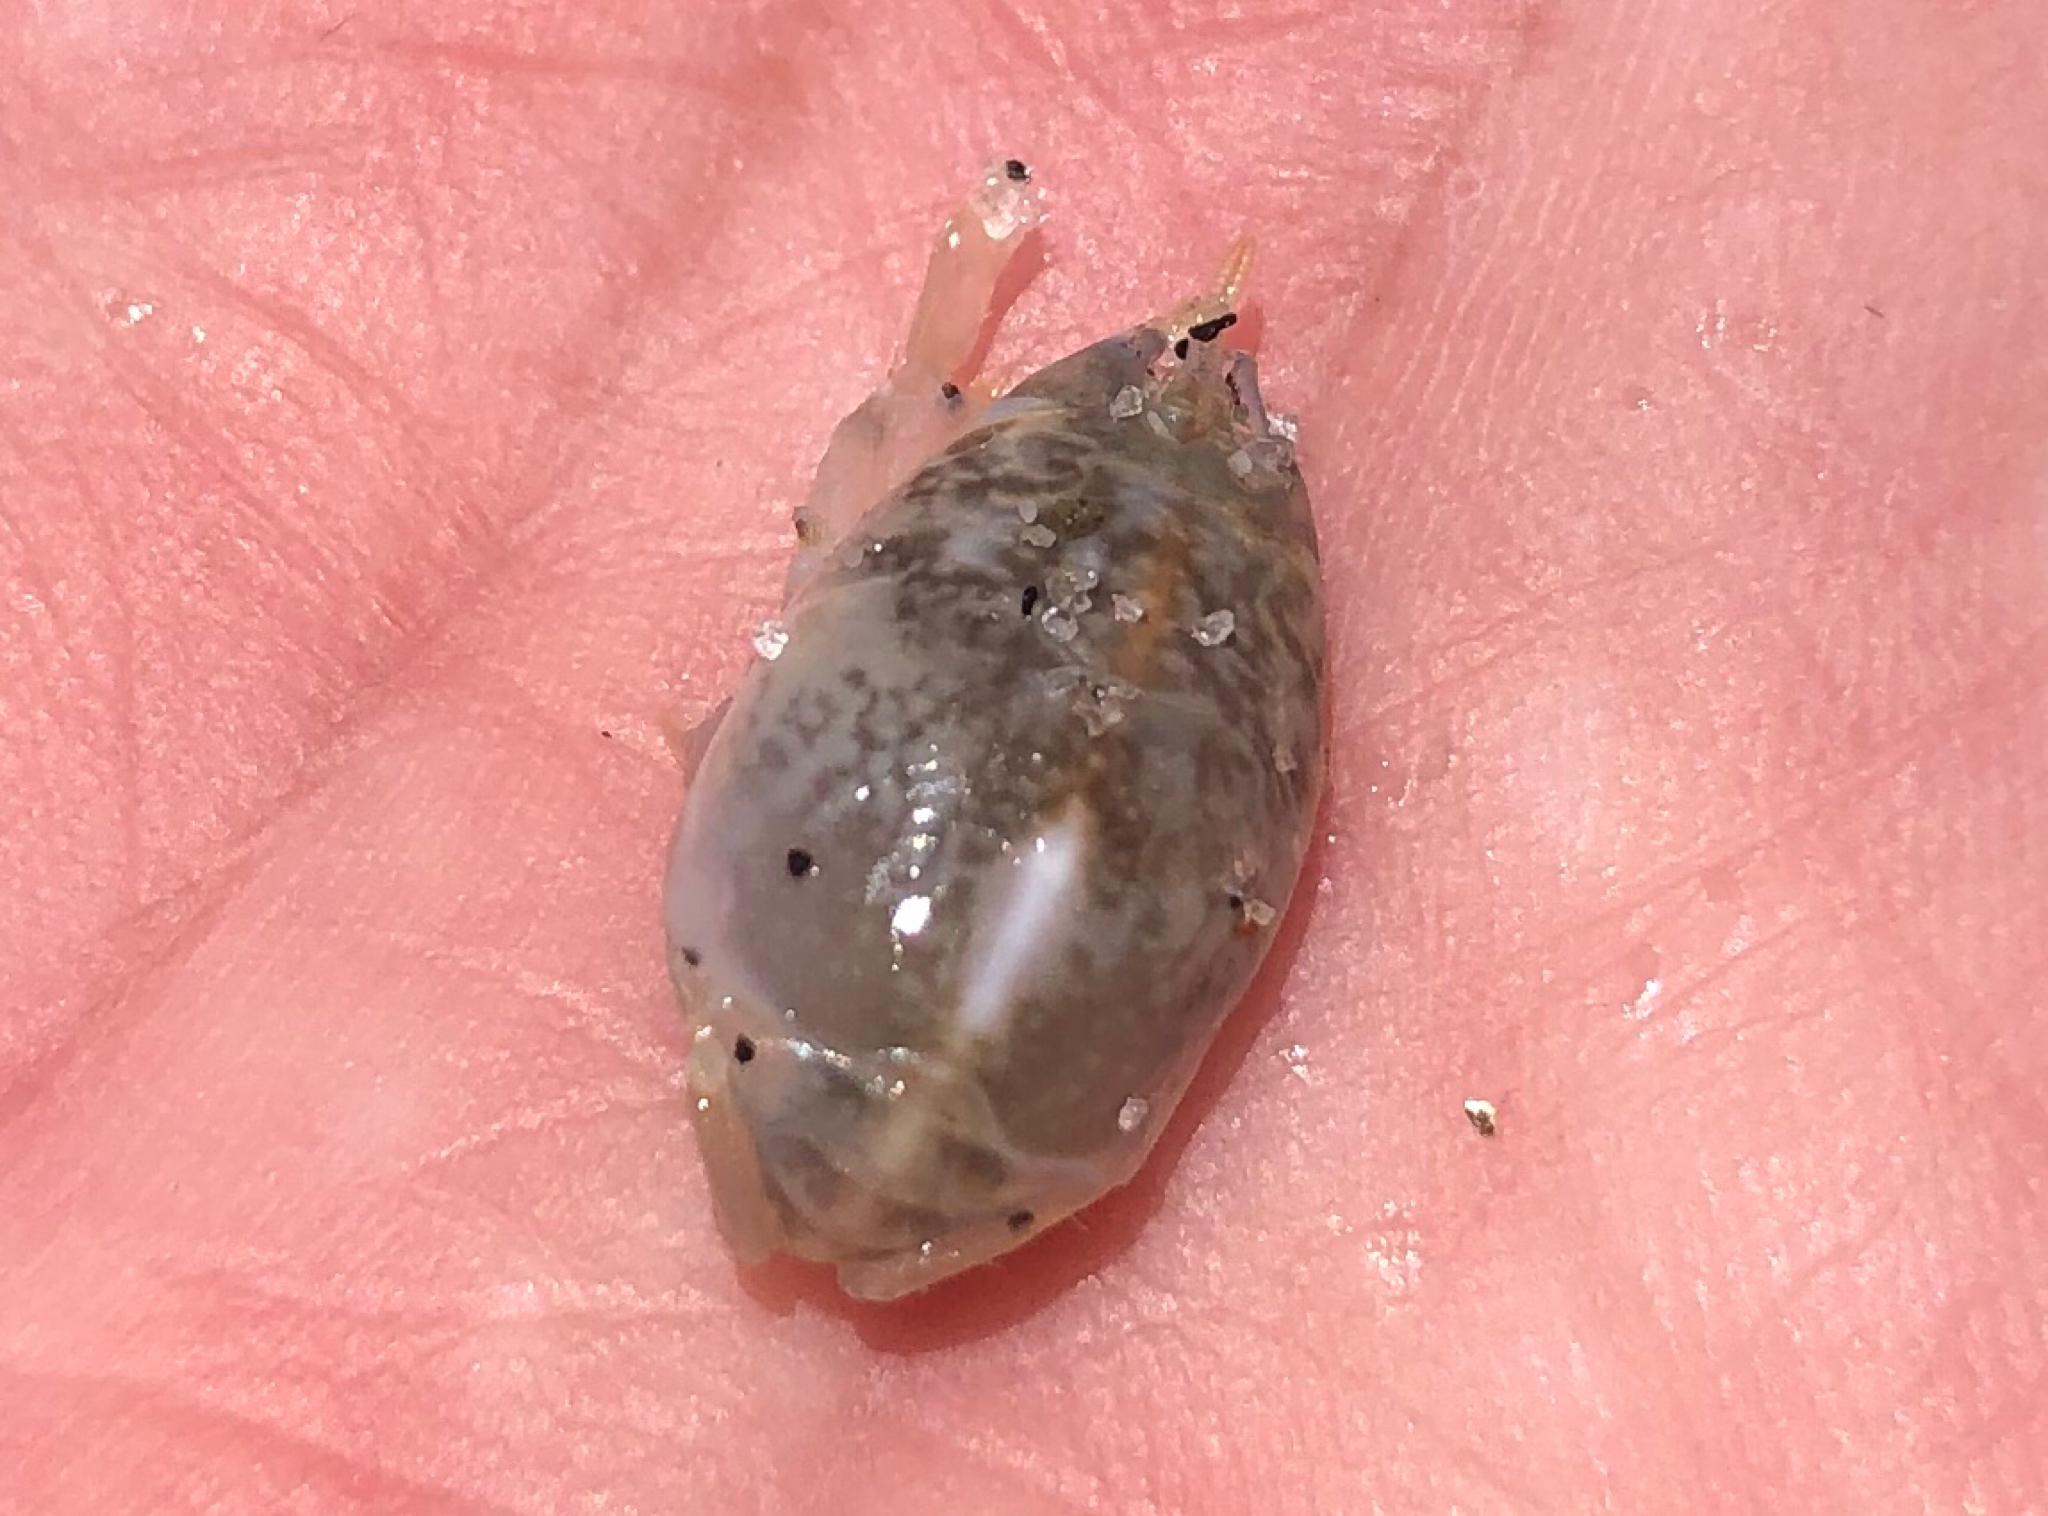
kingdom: Animalia
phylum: Arthropoda
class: Malacostraca
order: Decapoda
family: Hippidae
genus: Emerita
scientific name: Emerita analoga
